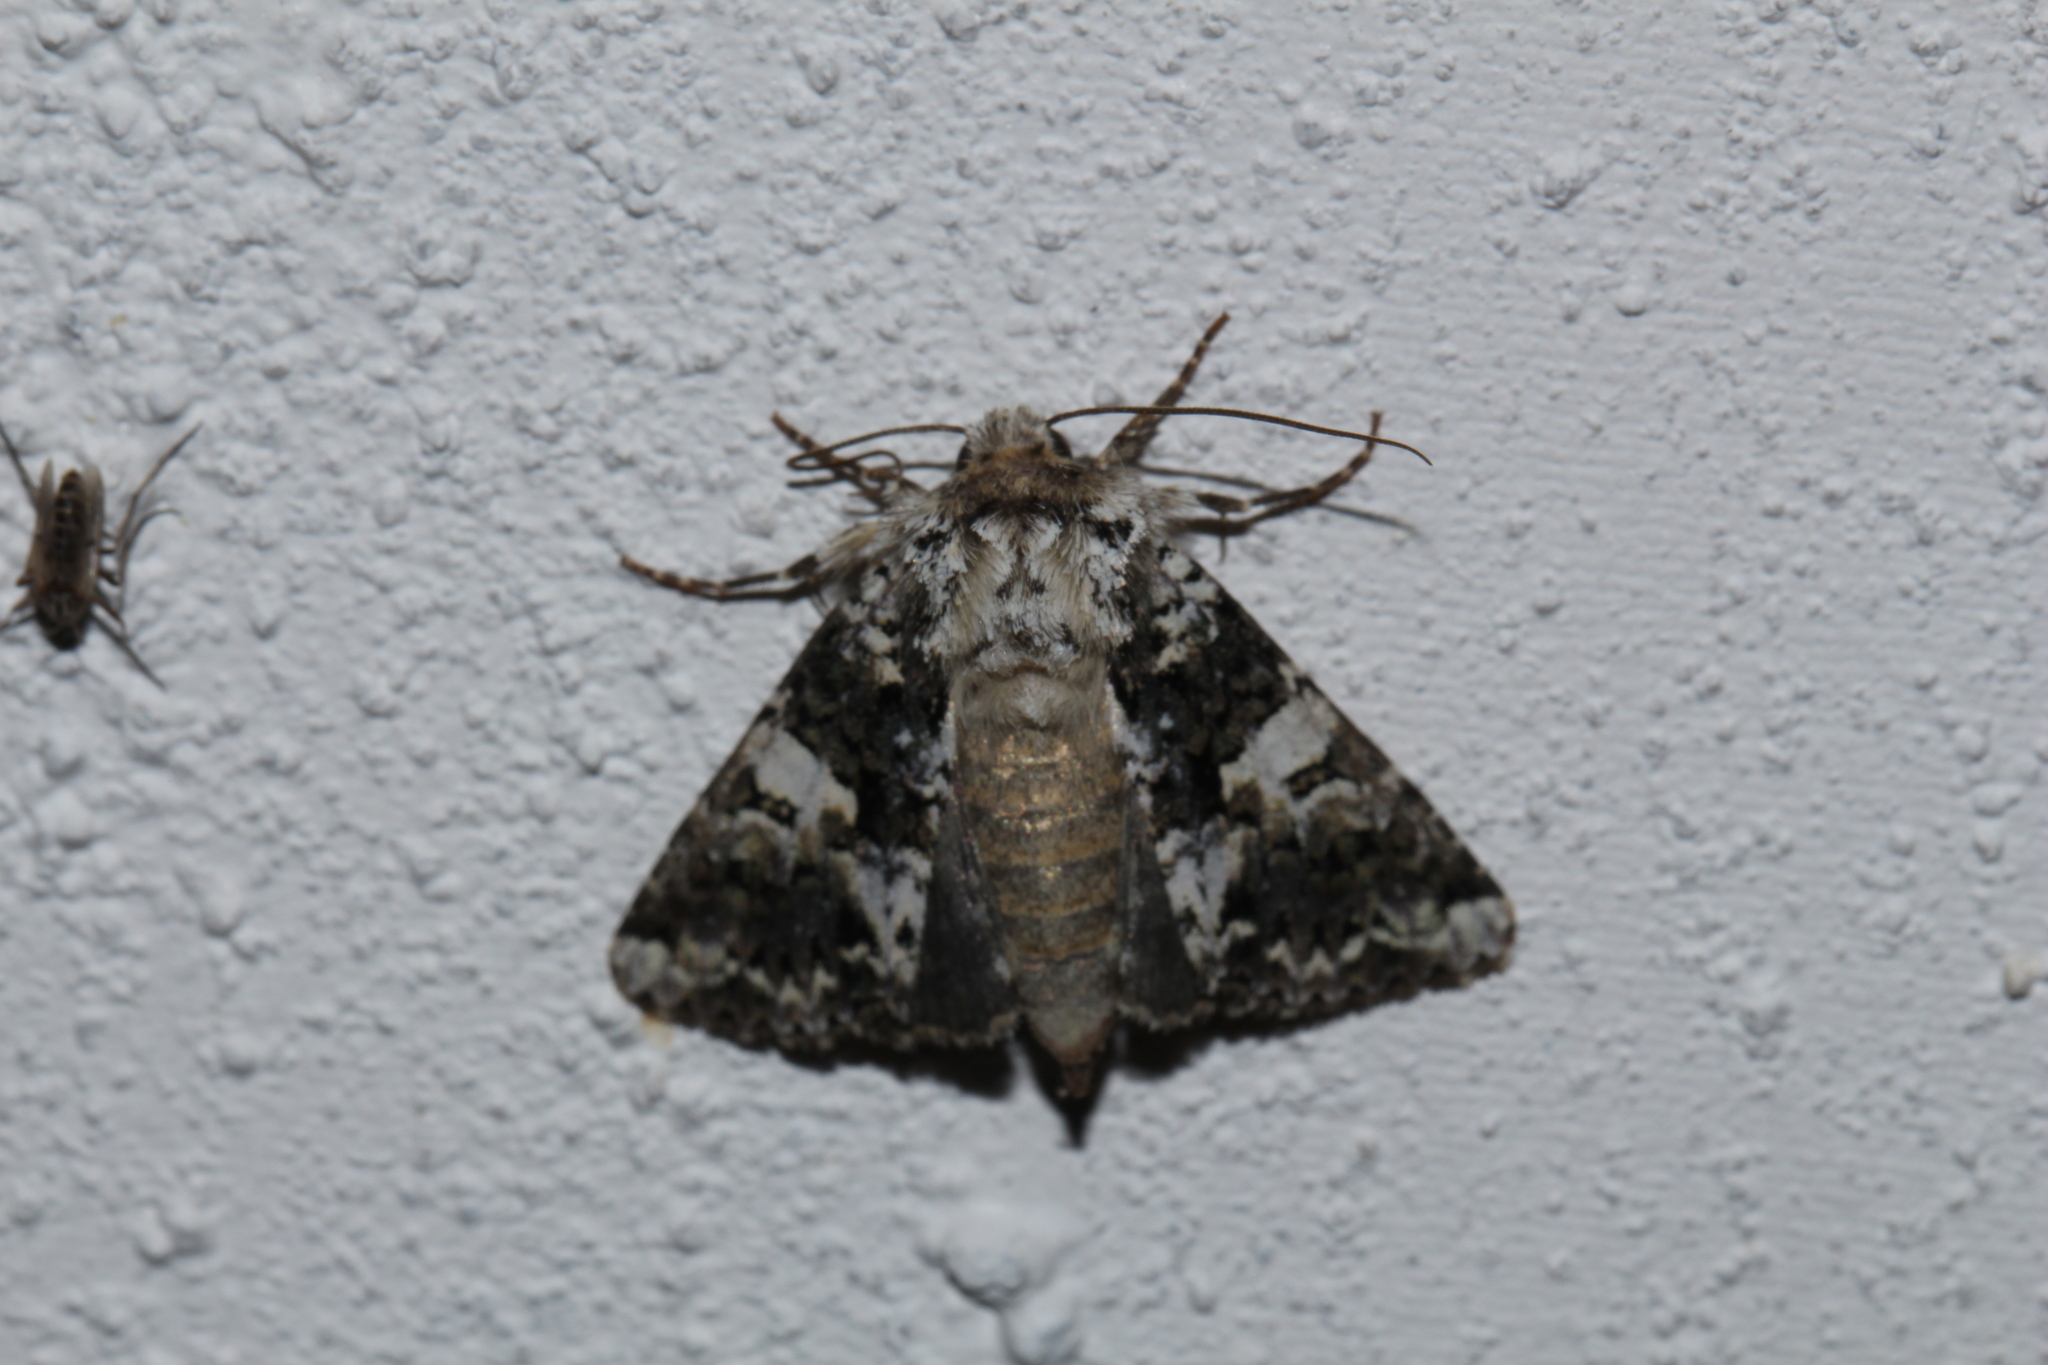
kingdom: Animalia
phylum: Arthropoda
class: Insecta
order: Lepidoptera
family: Noctuidae
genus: Hadena
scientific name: Hadena confusa
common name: Marbled coronet
